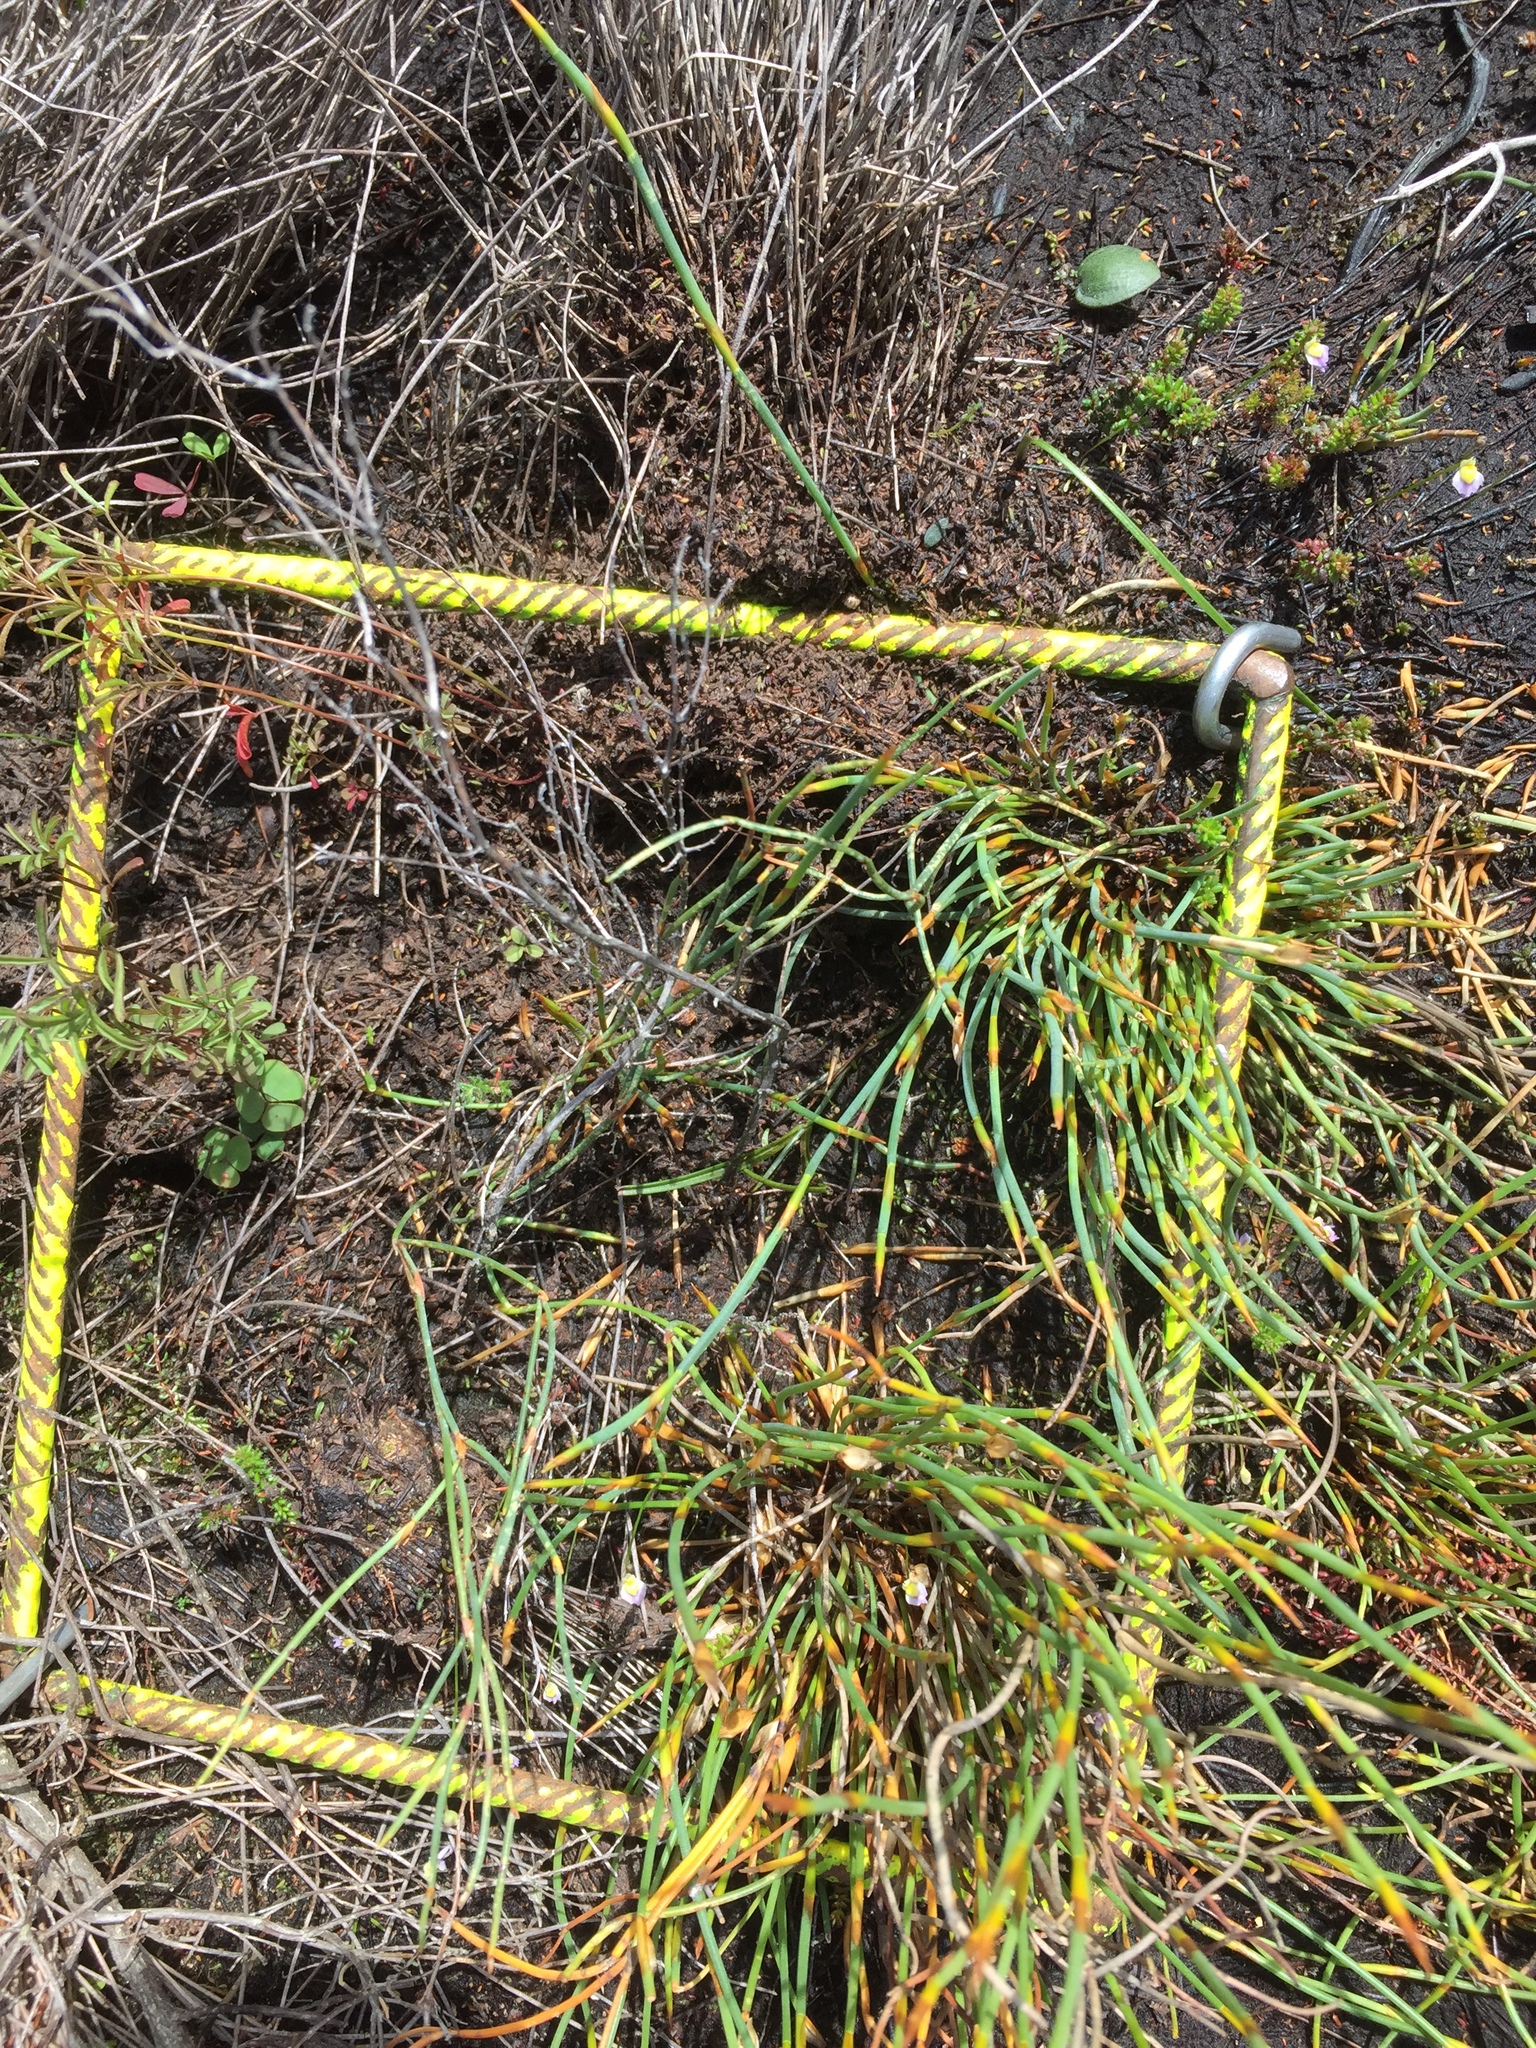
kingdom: Plantae
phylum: Tracheophyta
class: Magnoliopsida
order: Lamiales
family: Lentibulariaceae
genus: Utricularia
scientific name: Utricularia bisquamata
